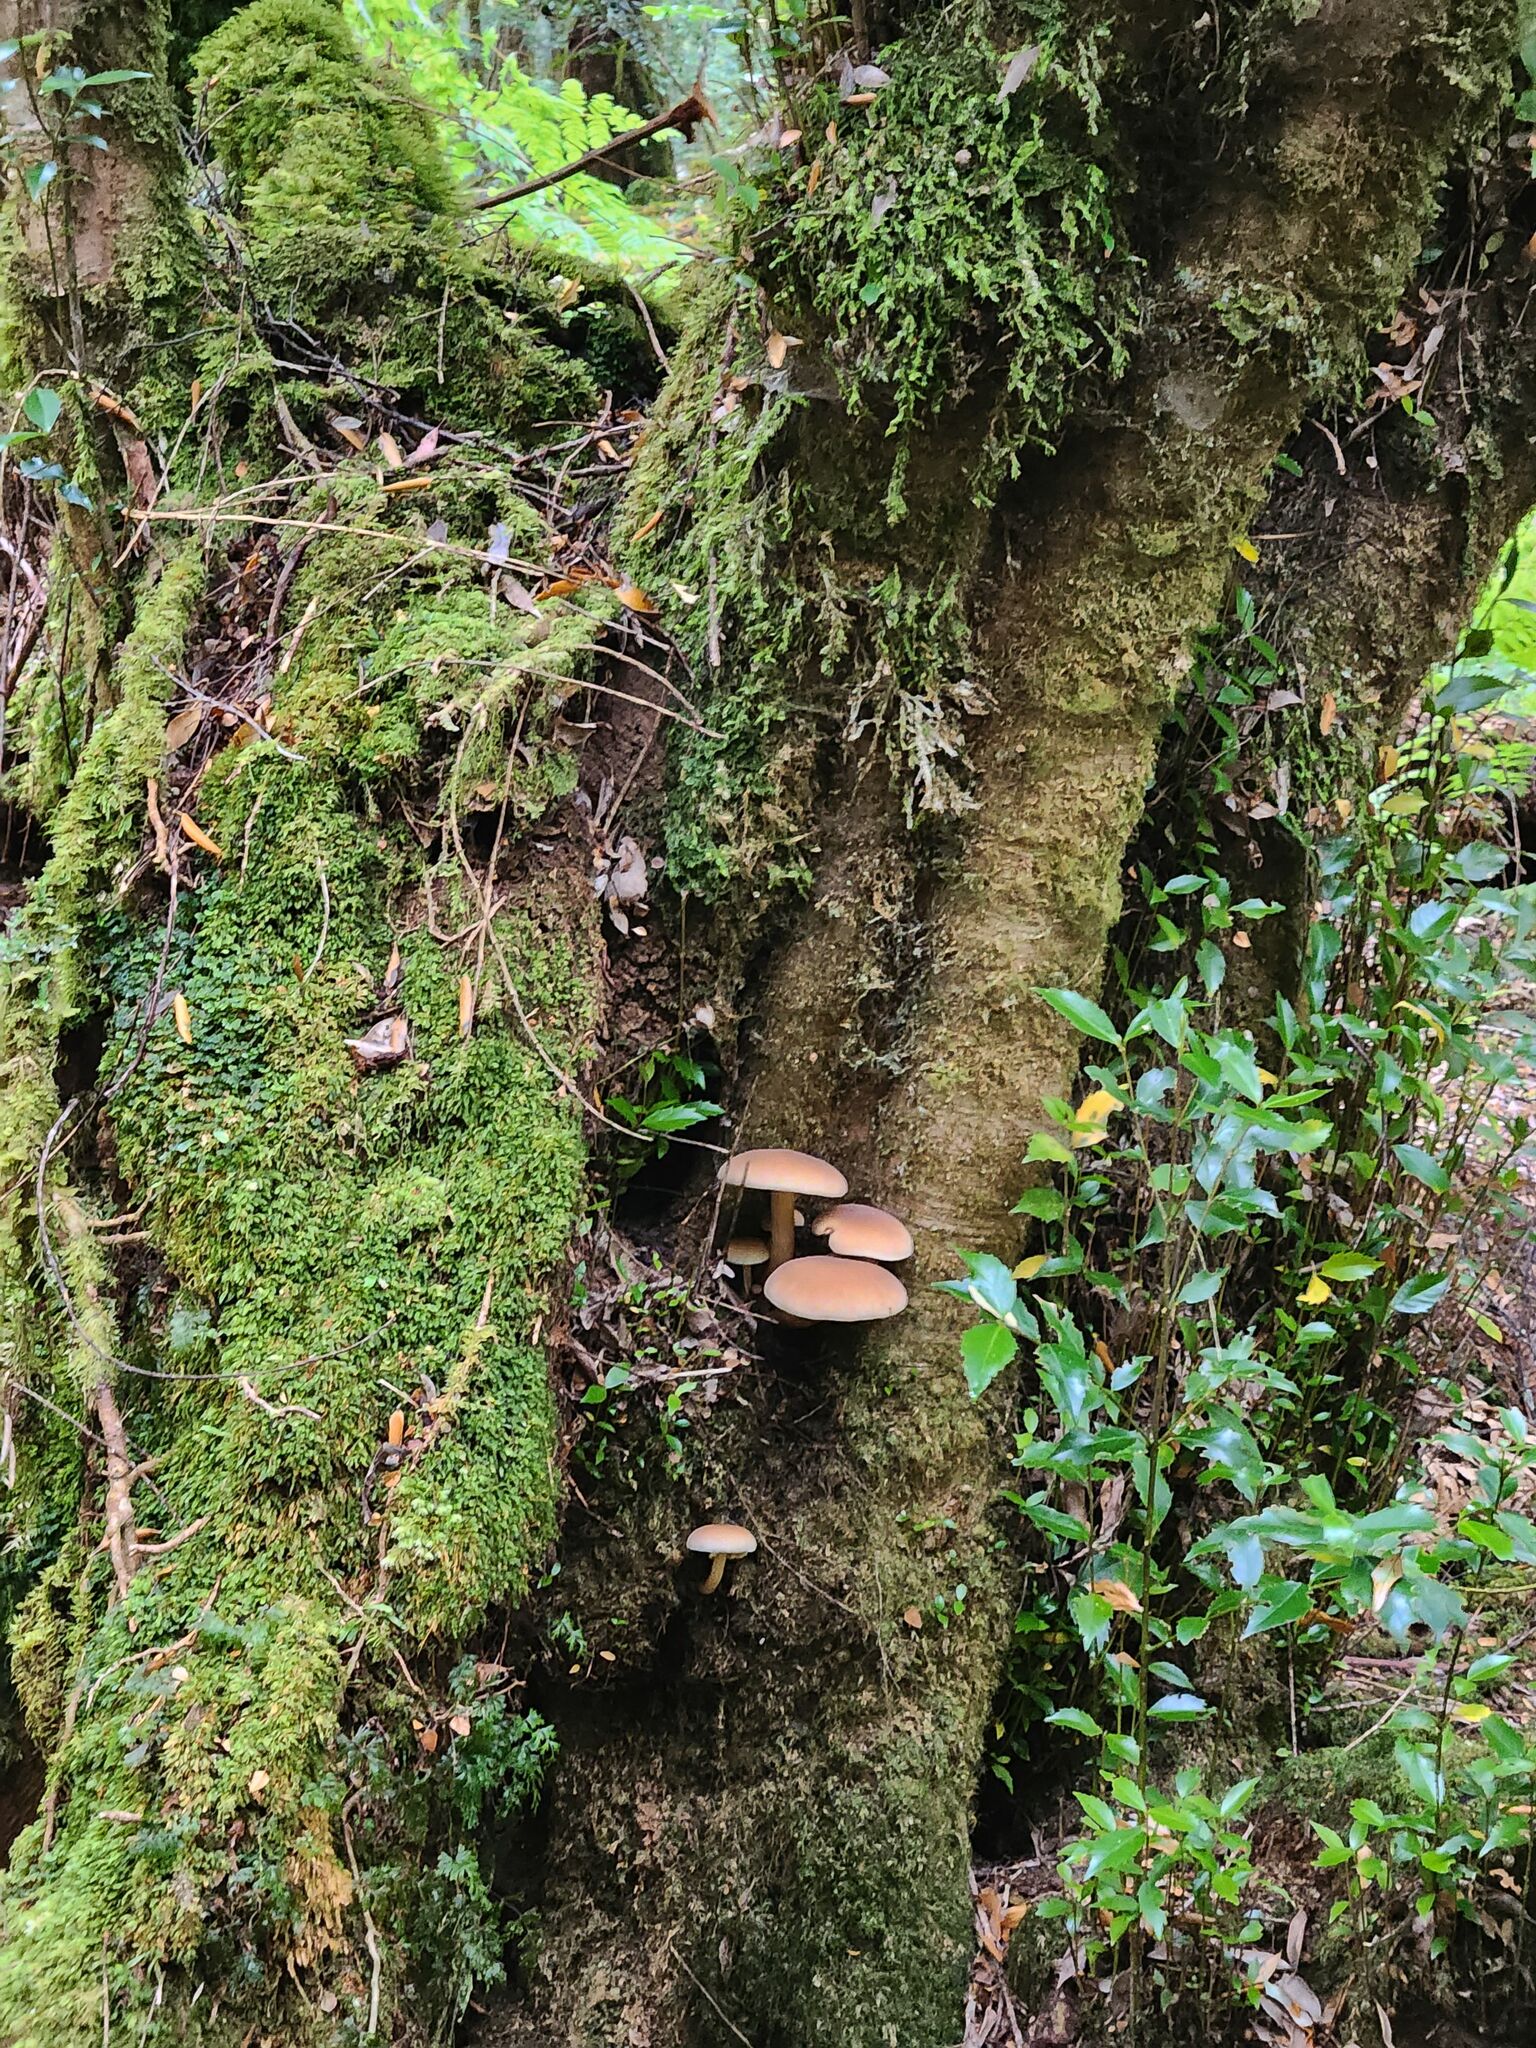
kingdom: Fungi
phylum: Basidiomycota
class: Agaricomycetes
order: Agaricales
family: Tubariaceae
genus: Cyclocybe
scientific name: Cyclocybe parasitica
